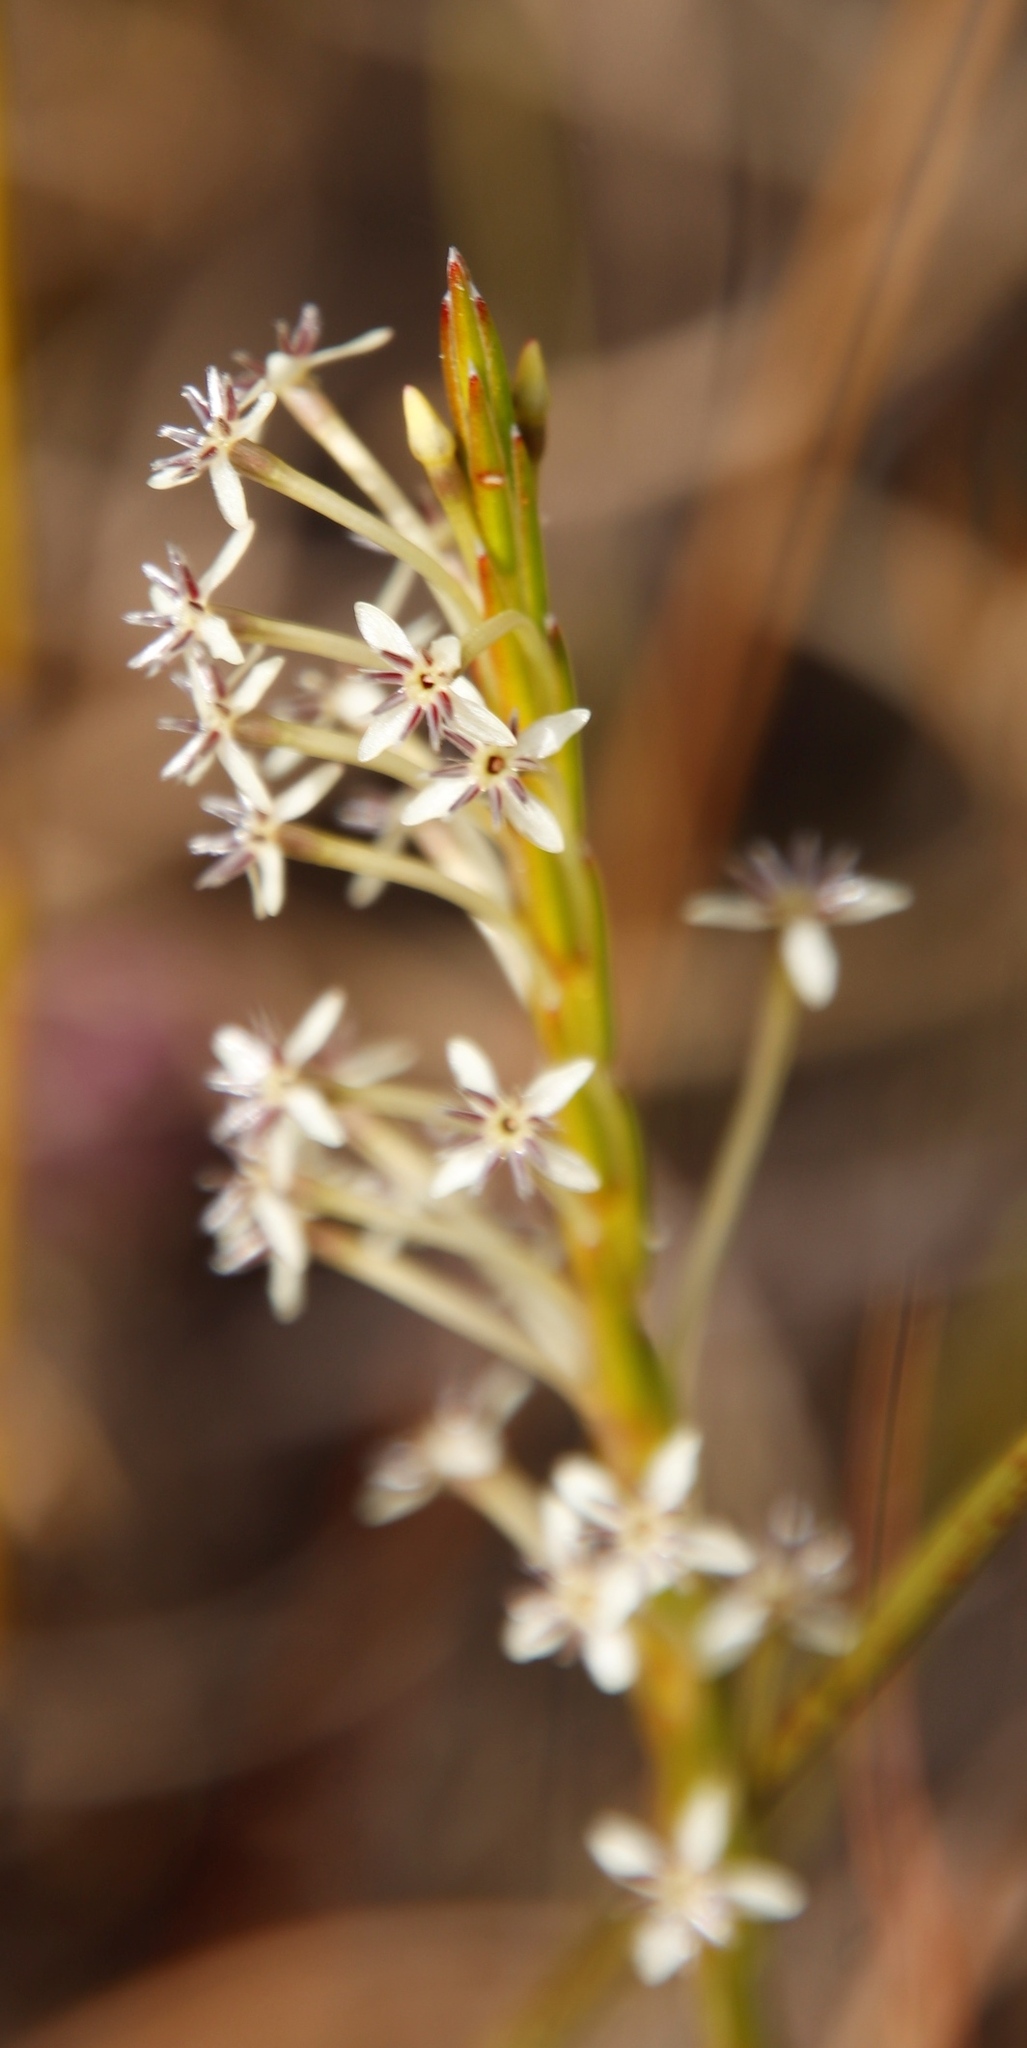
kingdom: Plantae
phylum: Tracheophyta
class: Magnoliopsida
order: Malvales
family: Thymelaeaceae
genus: Struthiola
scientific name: Struthiola macowanii
